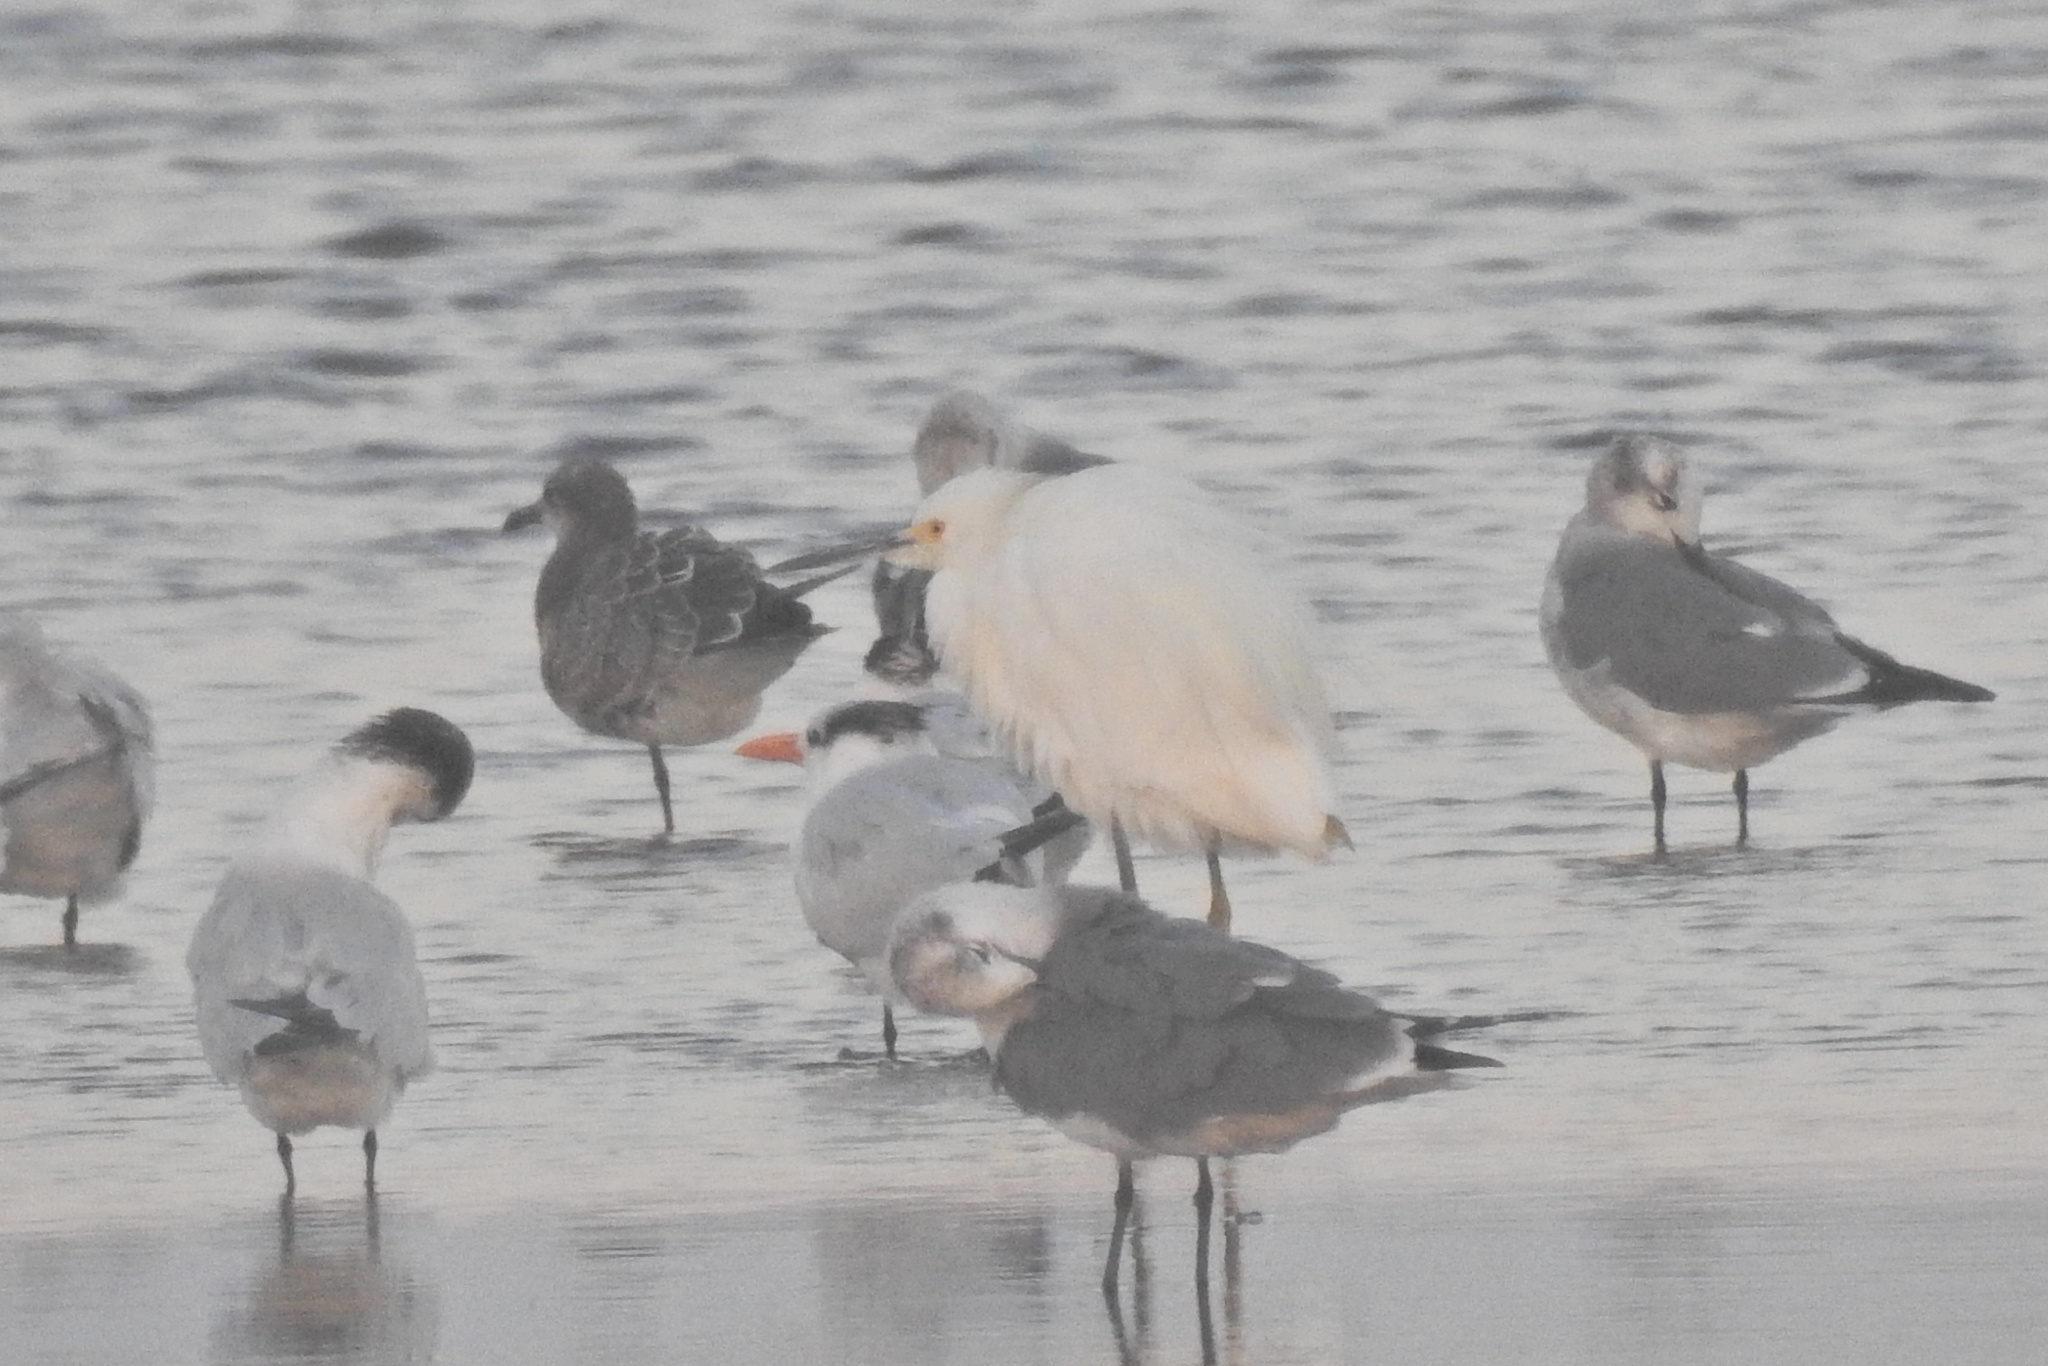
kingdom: Animalia
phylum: Chordata
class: Aves
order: Pelecaniformes
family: Ardeidae
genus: Egretta
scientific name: Egretta thula
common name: Snowy egret
